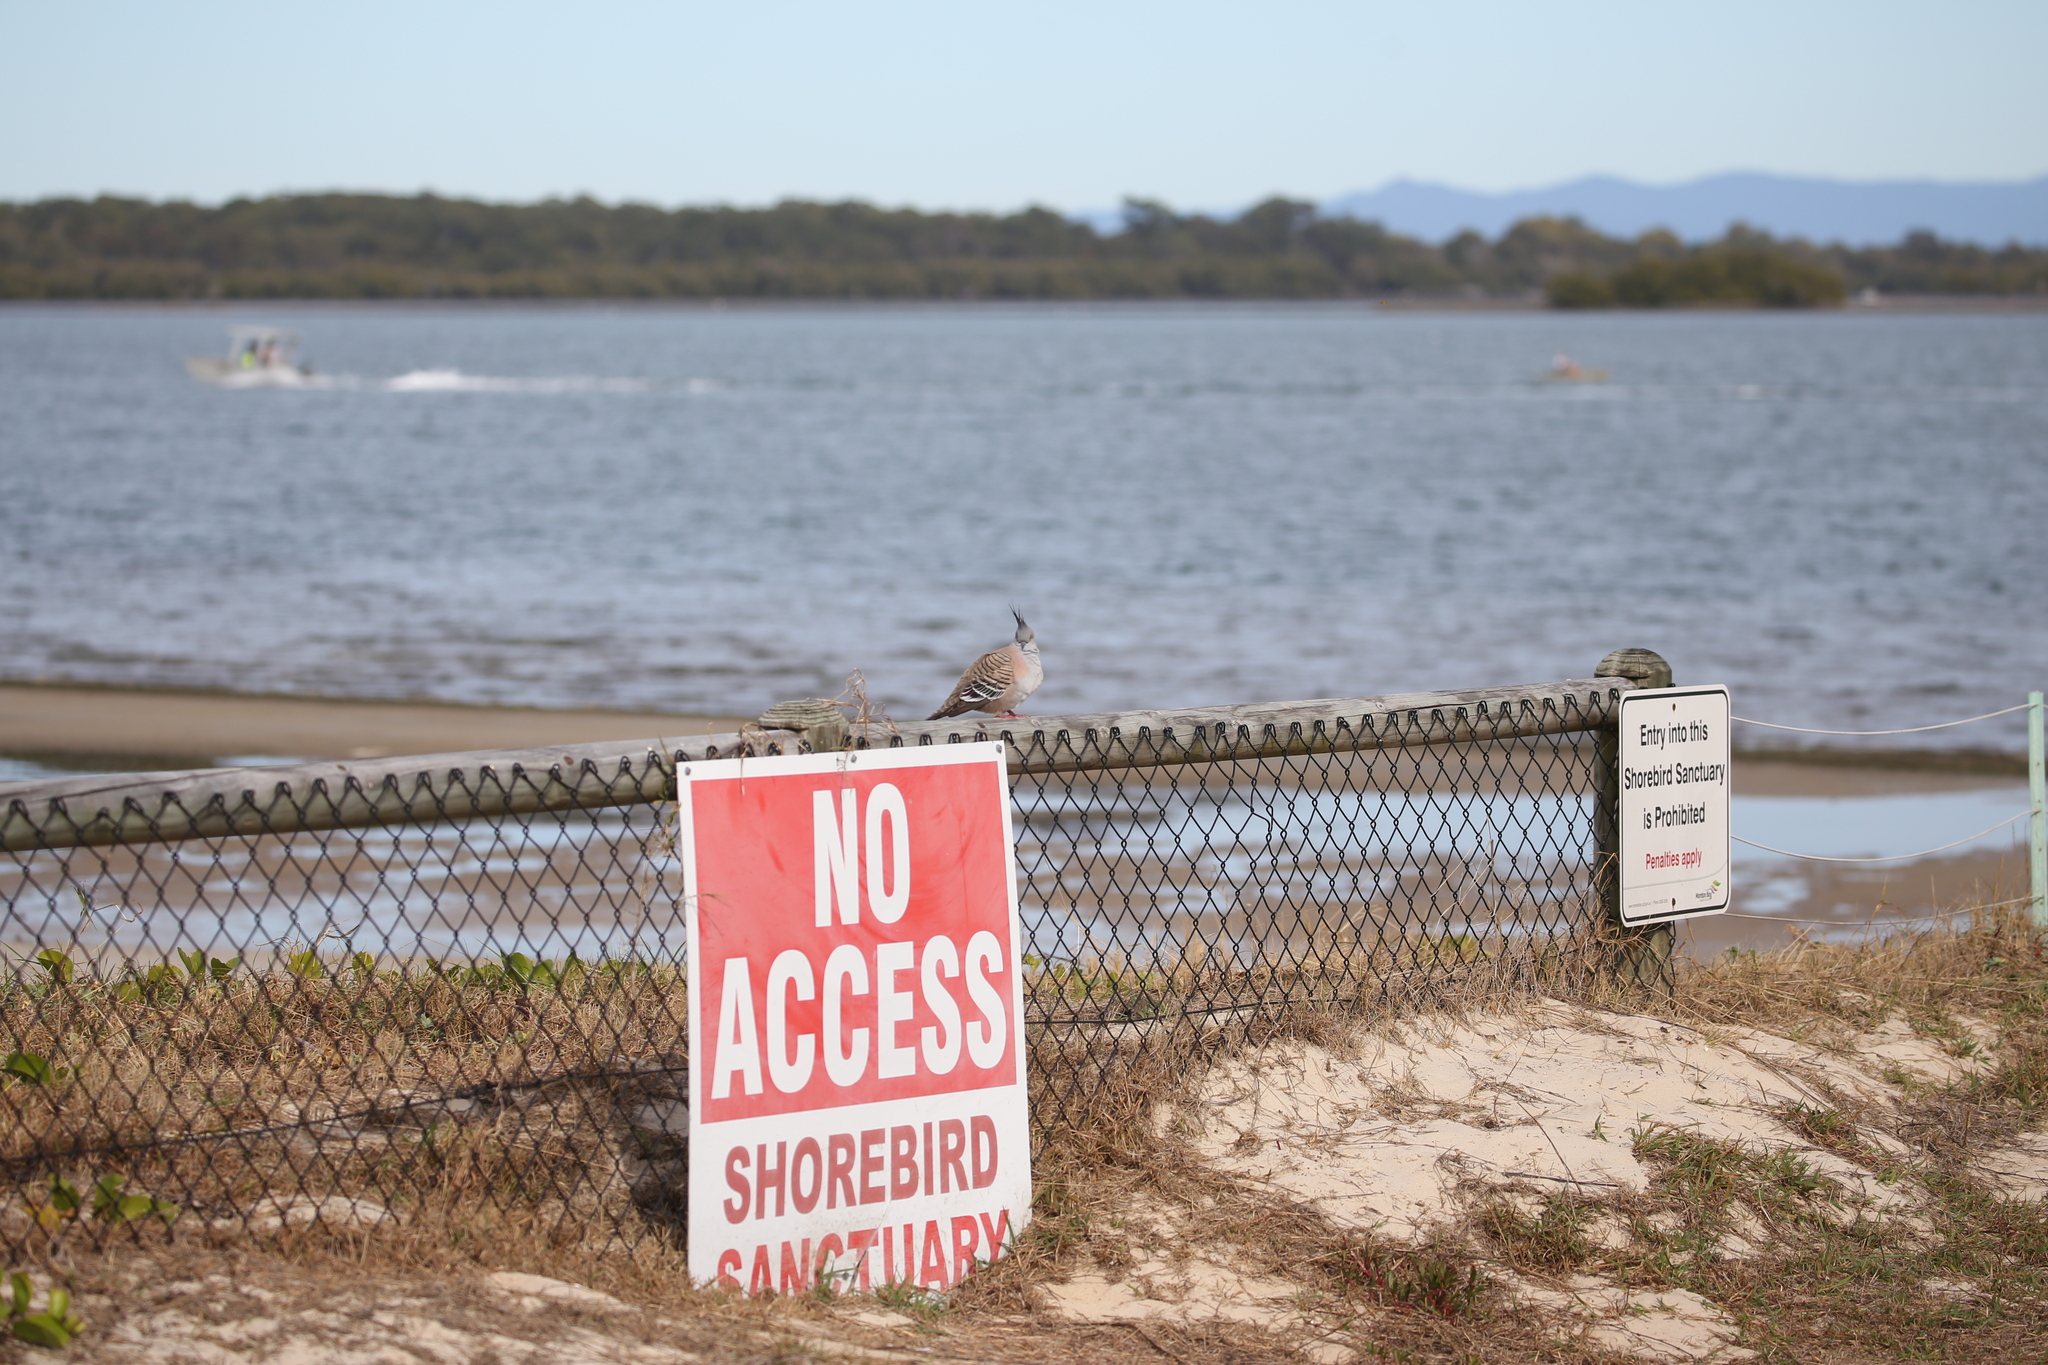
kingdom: Animalia
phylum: Chordata
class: Aves
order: Columbiformes
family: Columbidae
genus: Ocyphaps
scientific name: Ocyphaps lophotes
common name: Crested pigeon
